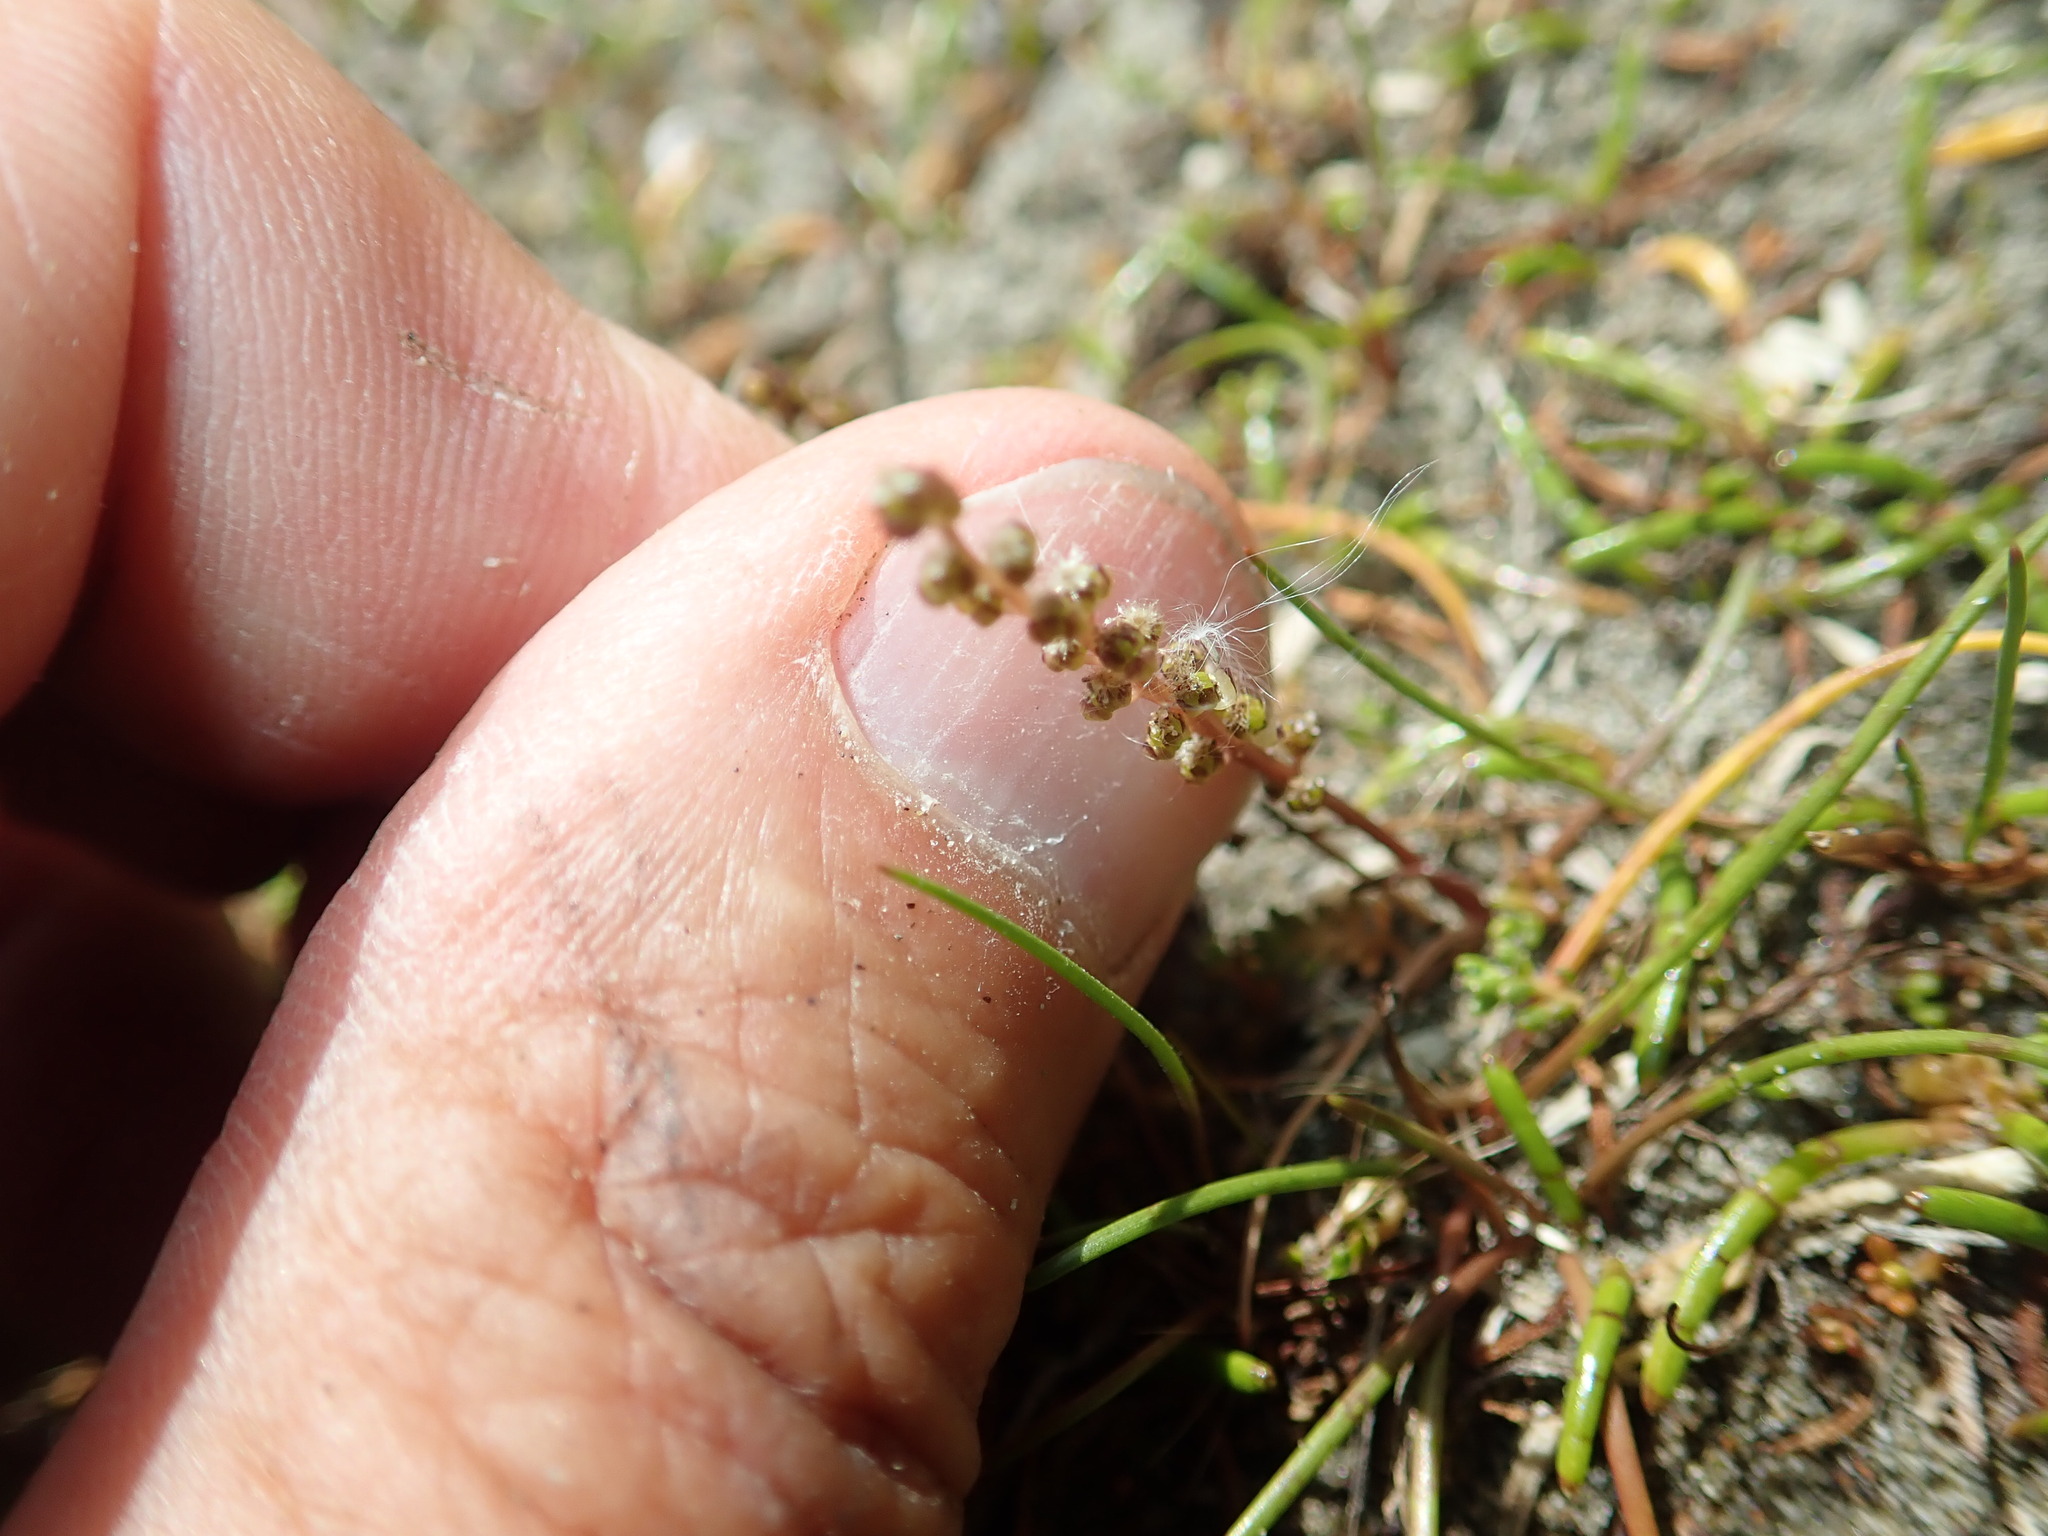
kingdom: Plantae
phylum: Tracheophyta
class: Liliopsida
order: Alismatales
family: Juncaginaceae
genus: Triglochin
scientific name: Triglochin striata
